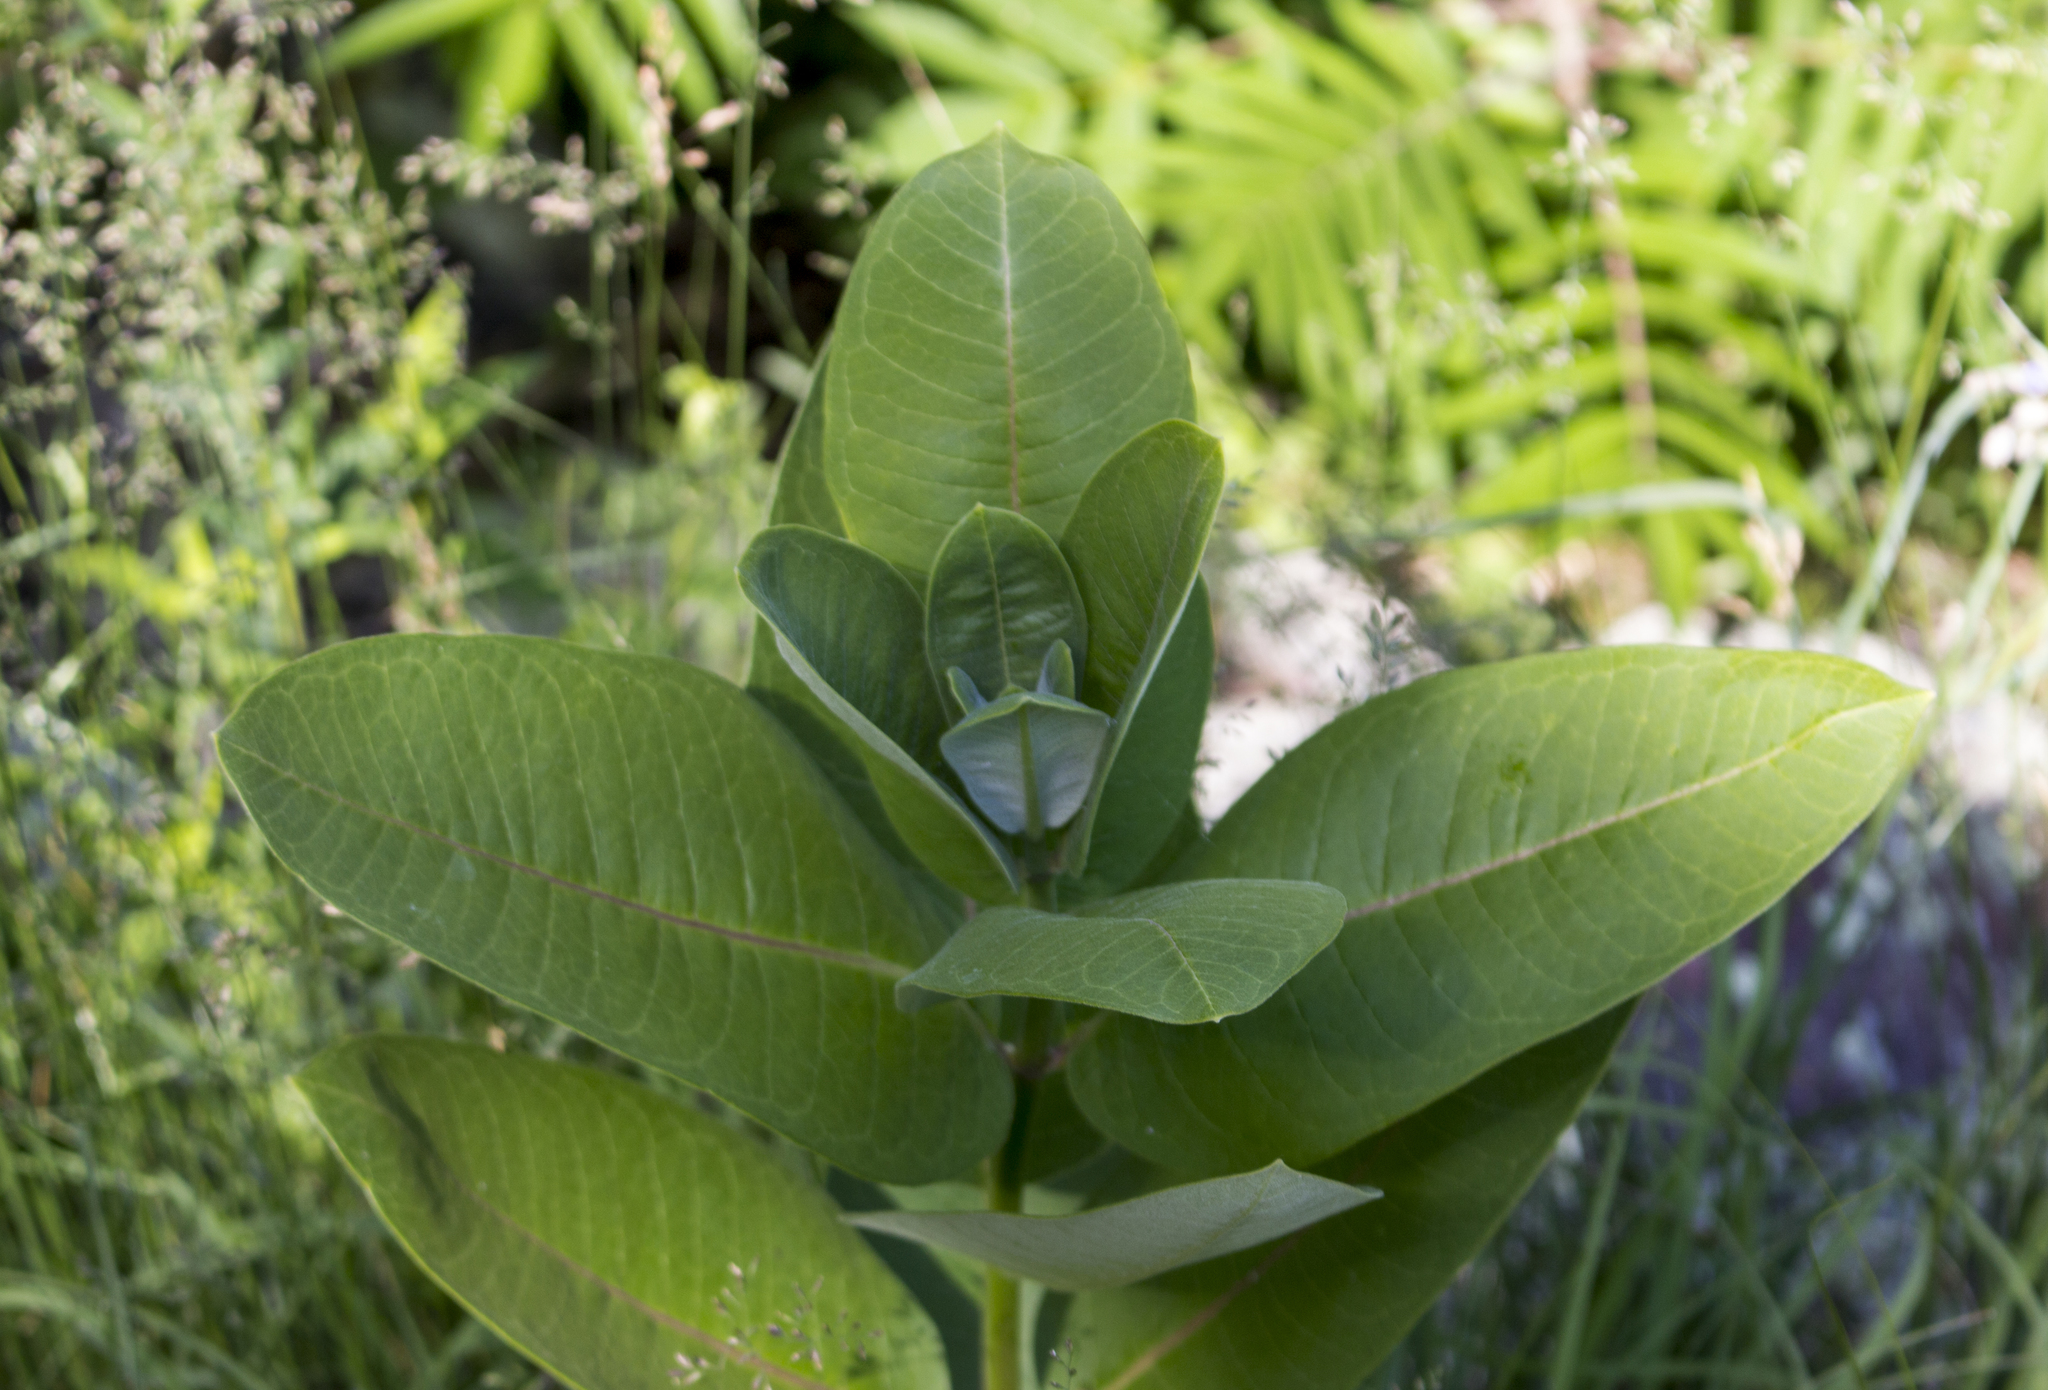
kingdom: Plantae
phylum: Tracheophyta
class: Magnoliopsida
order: Gentianales
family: Apocynaceae
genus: Asclepias
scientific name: Asclepias syriaca
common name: Common milkweed
